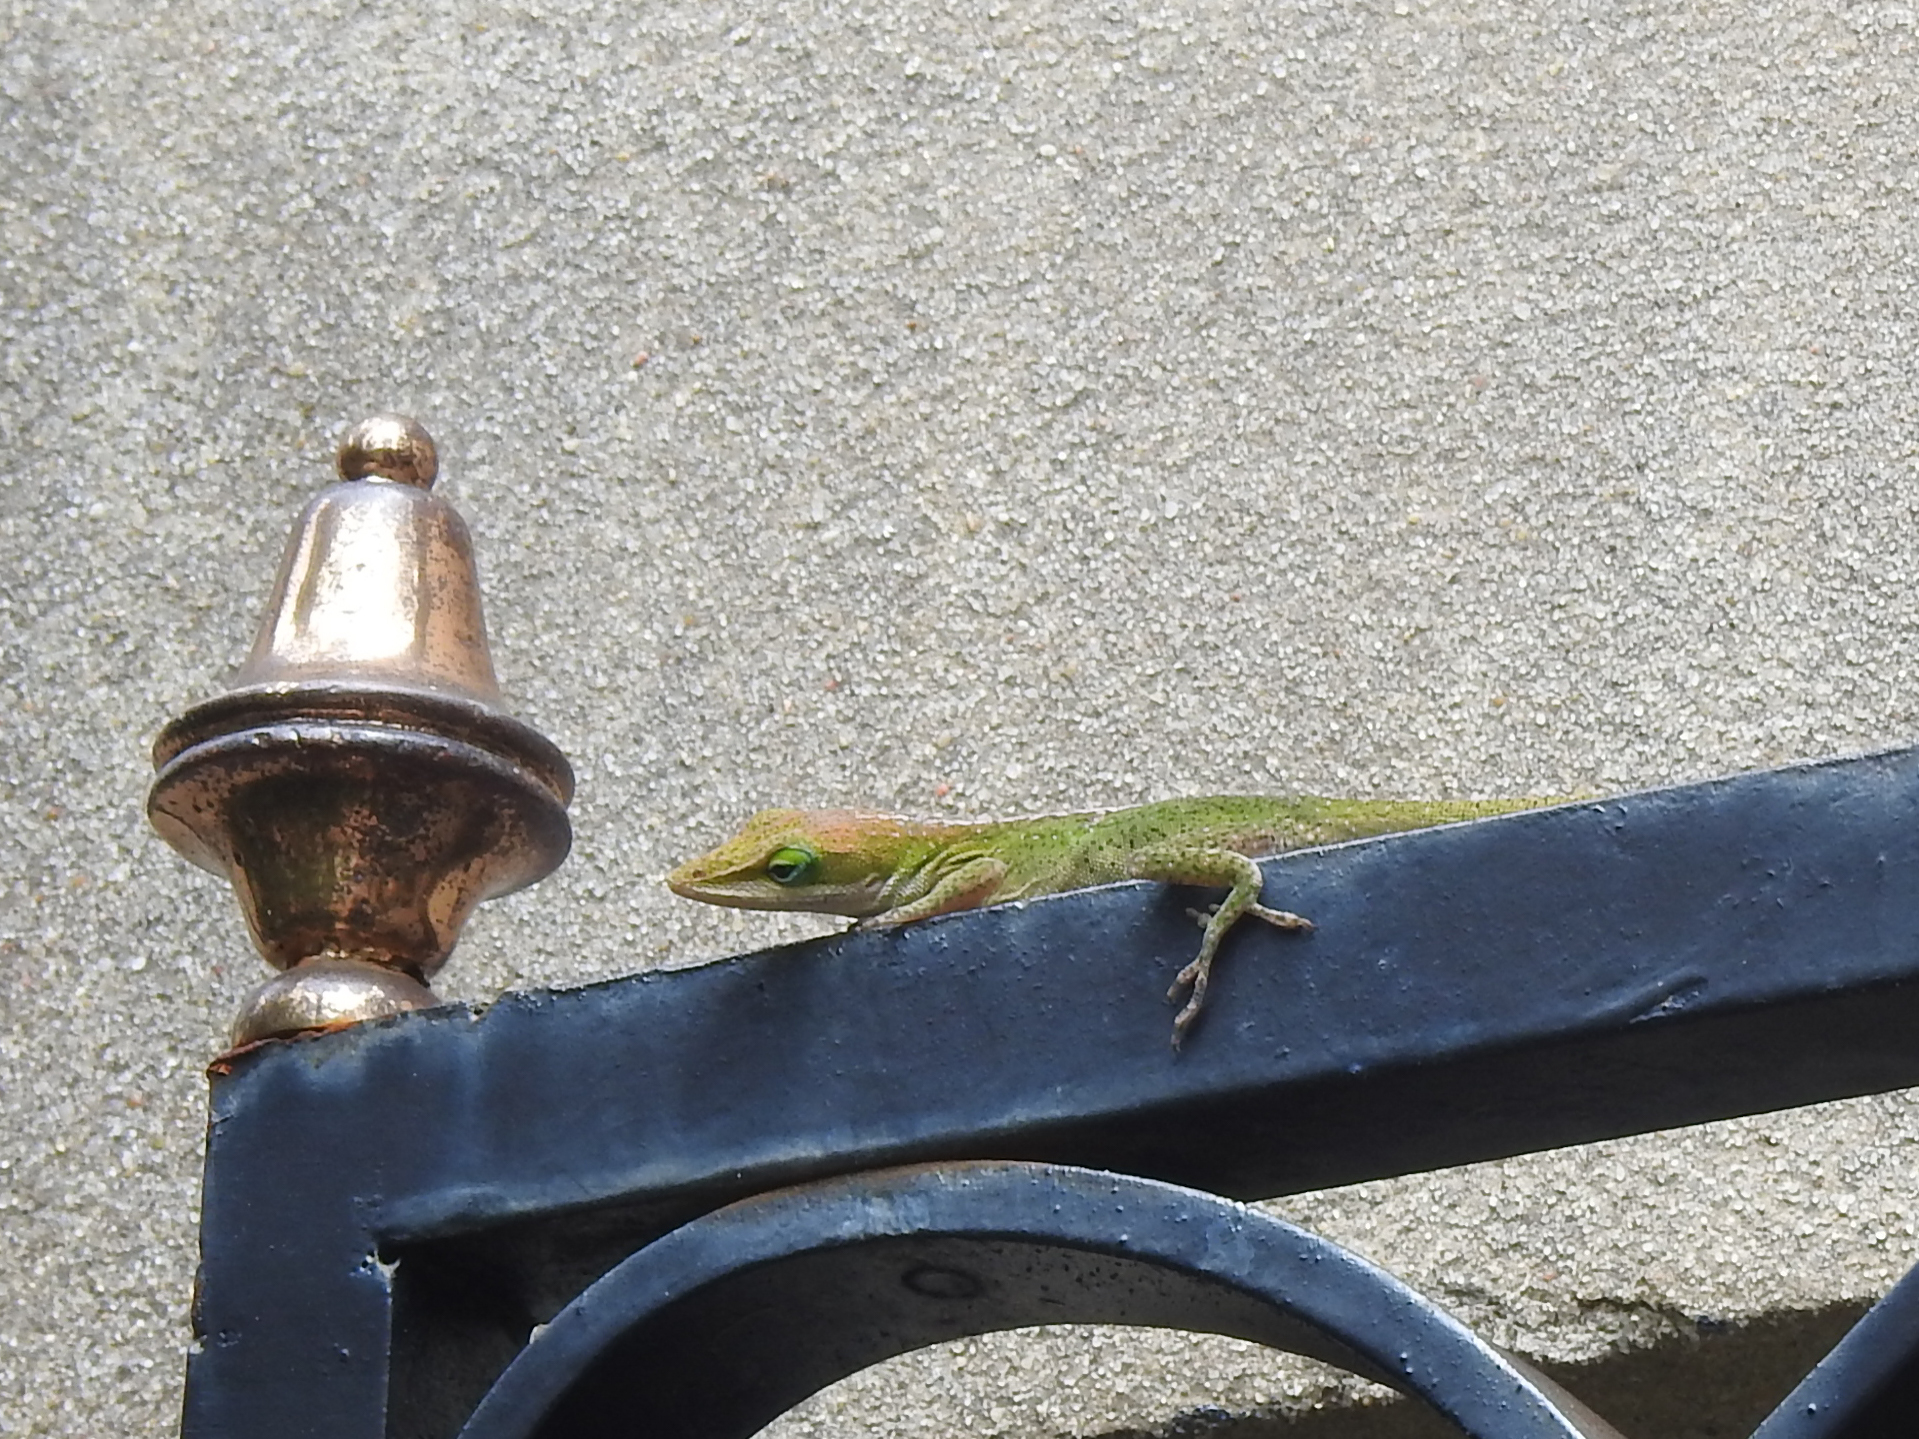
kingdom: Animalia
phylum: Chordata
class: Squamata
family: Dactyloidae
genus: Anolis
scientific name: Anolis carolinensis
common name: Green anole
